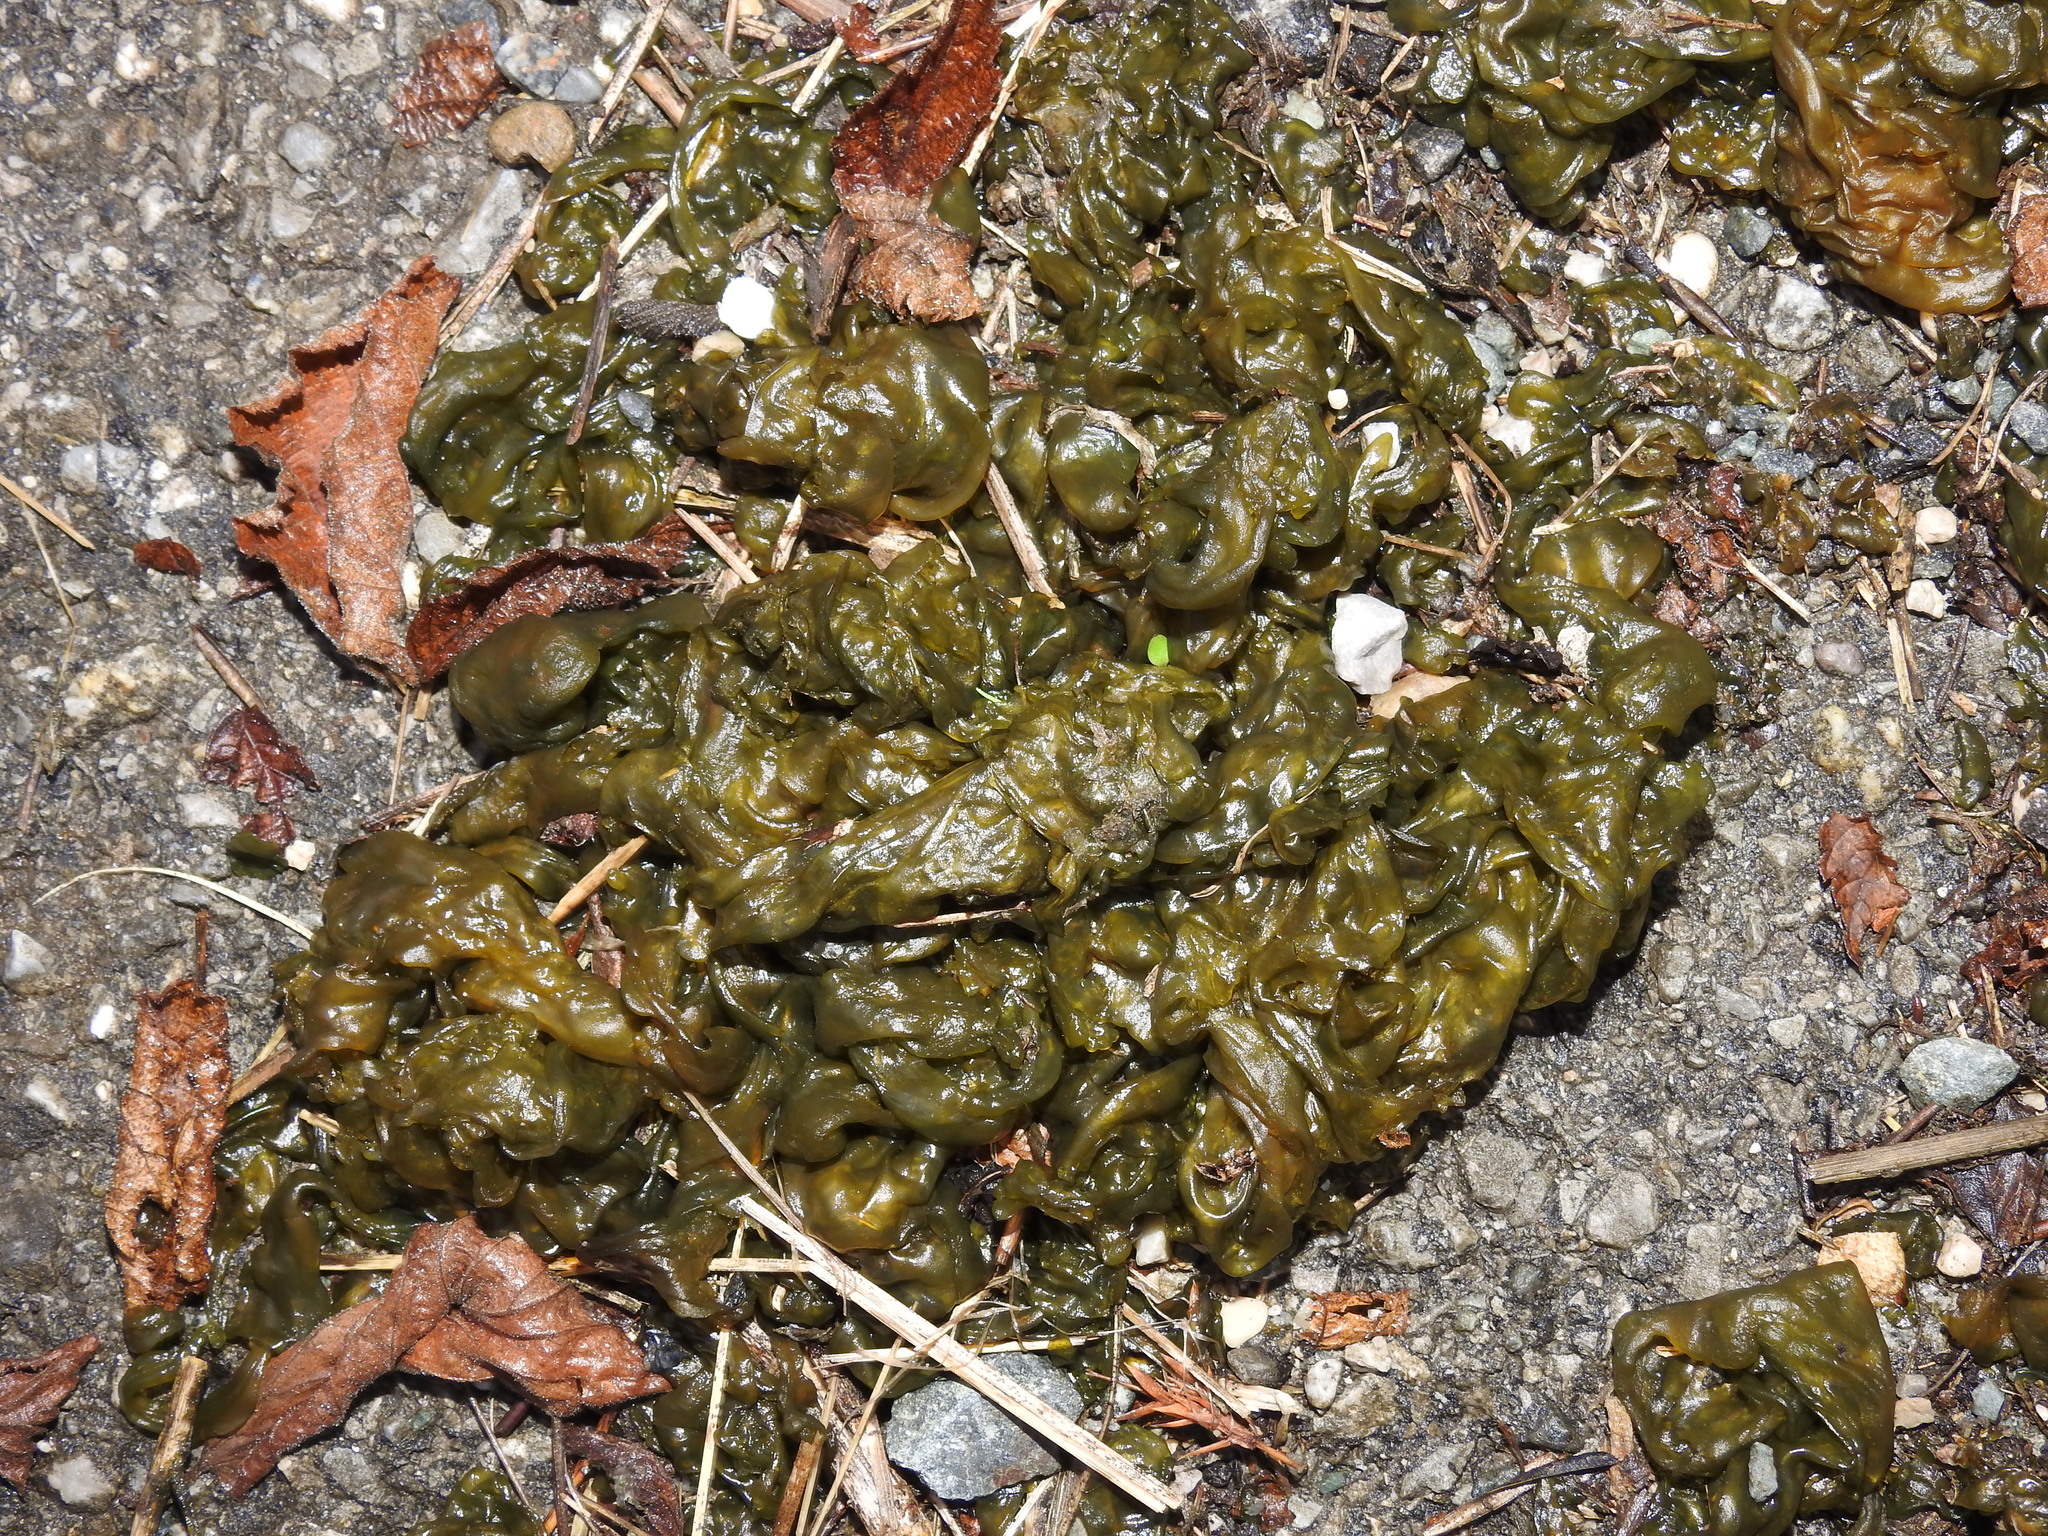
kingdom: Bacteria
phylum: Cyanobacteria
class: Cyanobacteriia
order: Cyanobacteriales
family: Nostocaceae
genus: Nostoc
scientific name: Nostoc commune
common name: Star jelly
